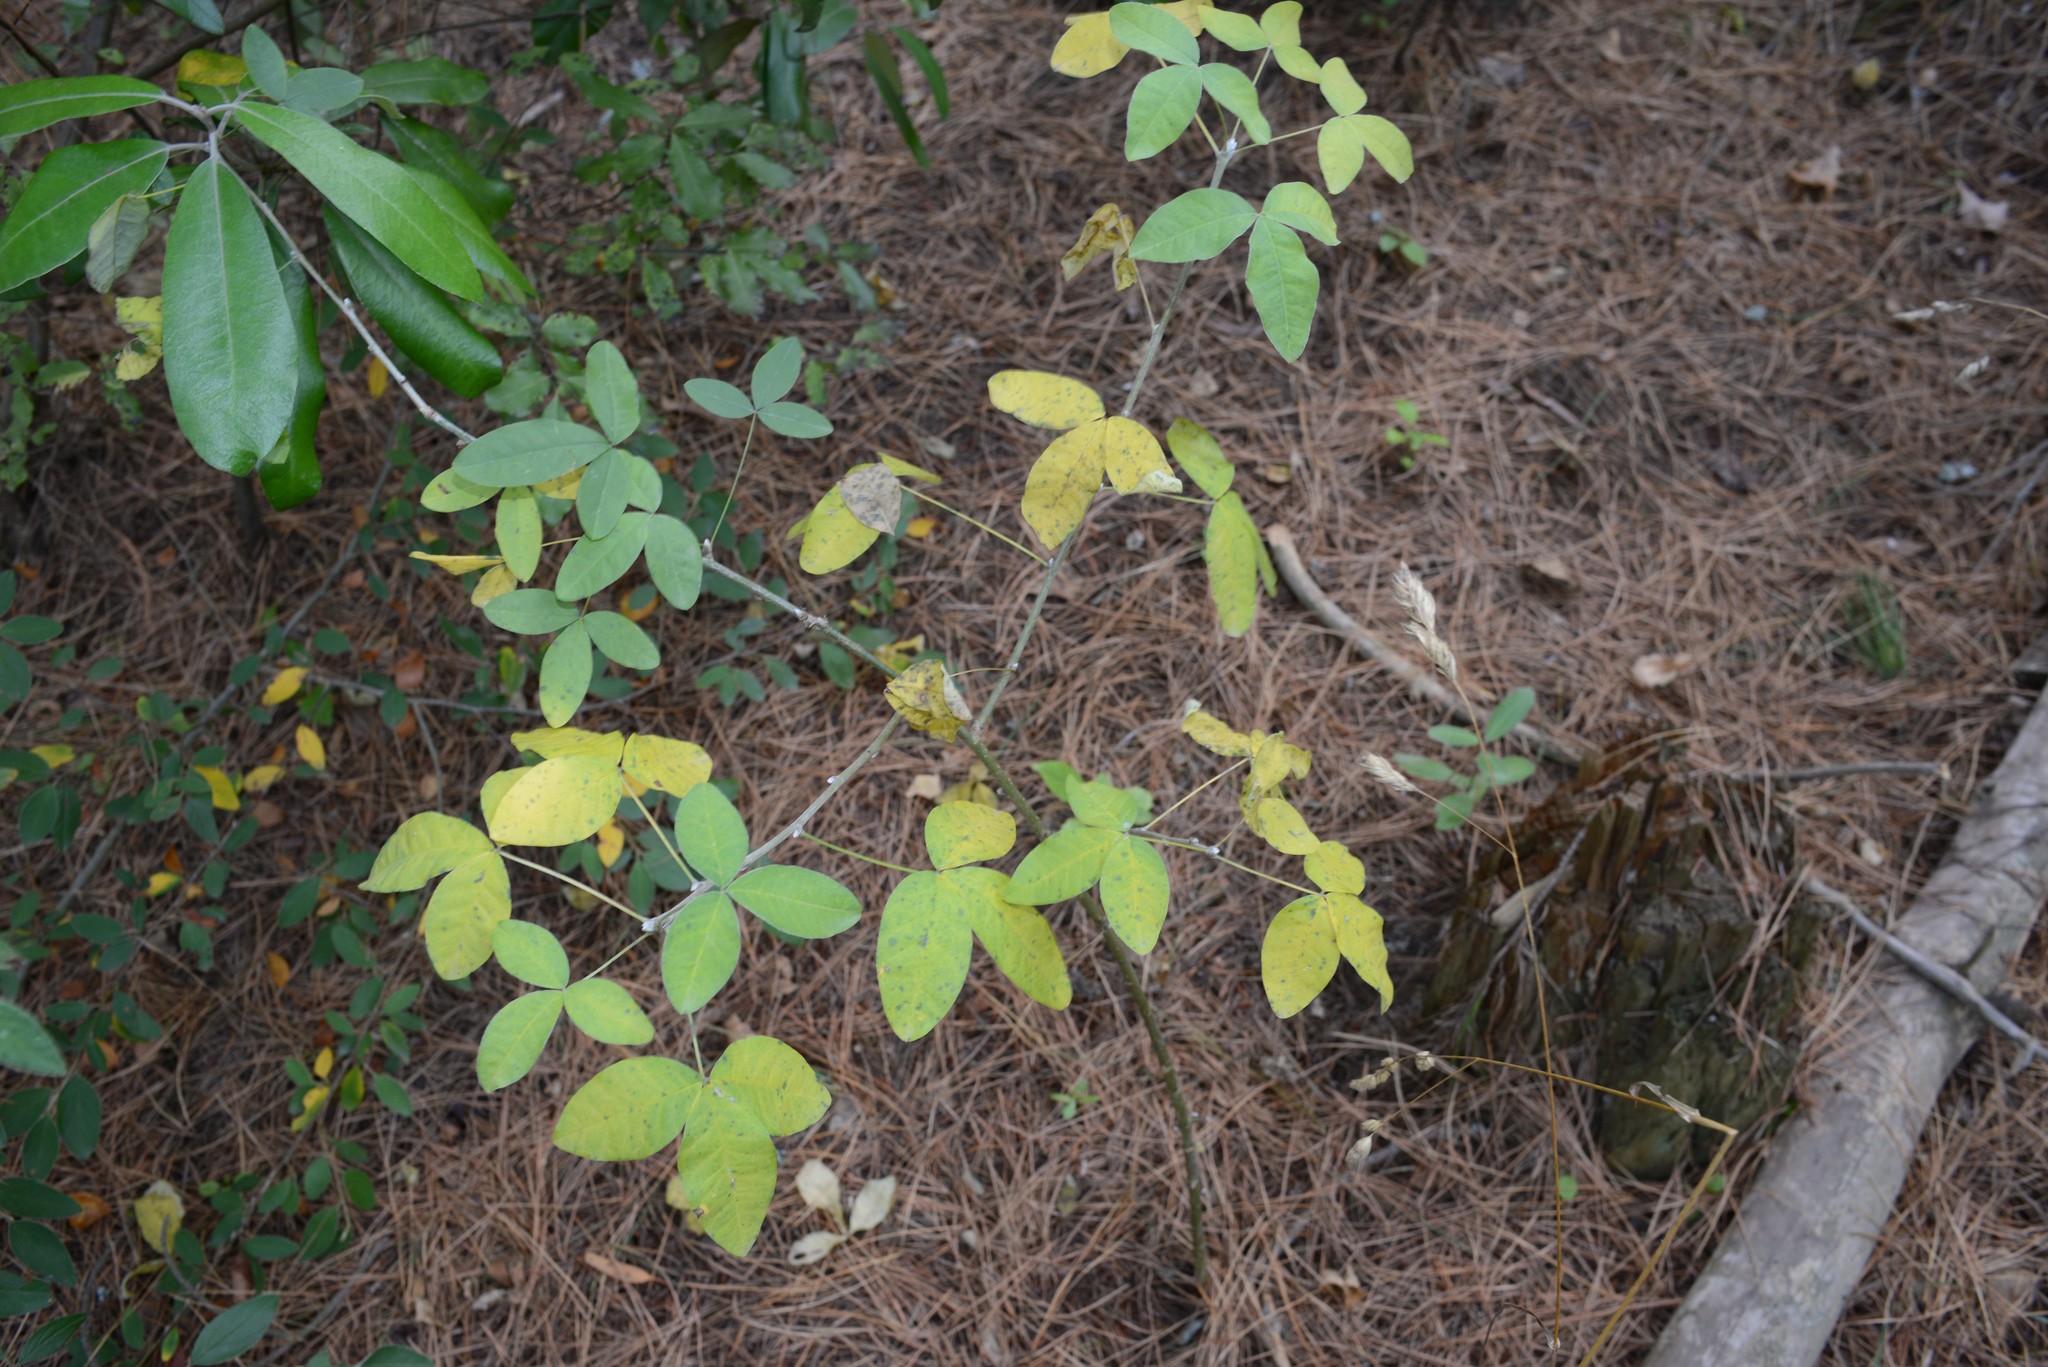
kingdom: Plantae
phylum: Tracheophyta
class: Magnoliopsida
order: Fabales
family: Fabaceae
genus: Laburnum
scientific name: Laburnum anagyroides
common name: Laburnum
